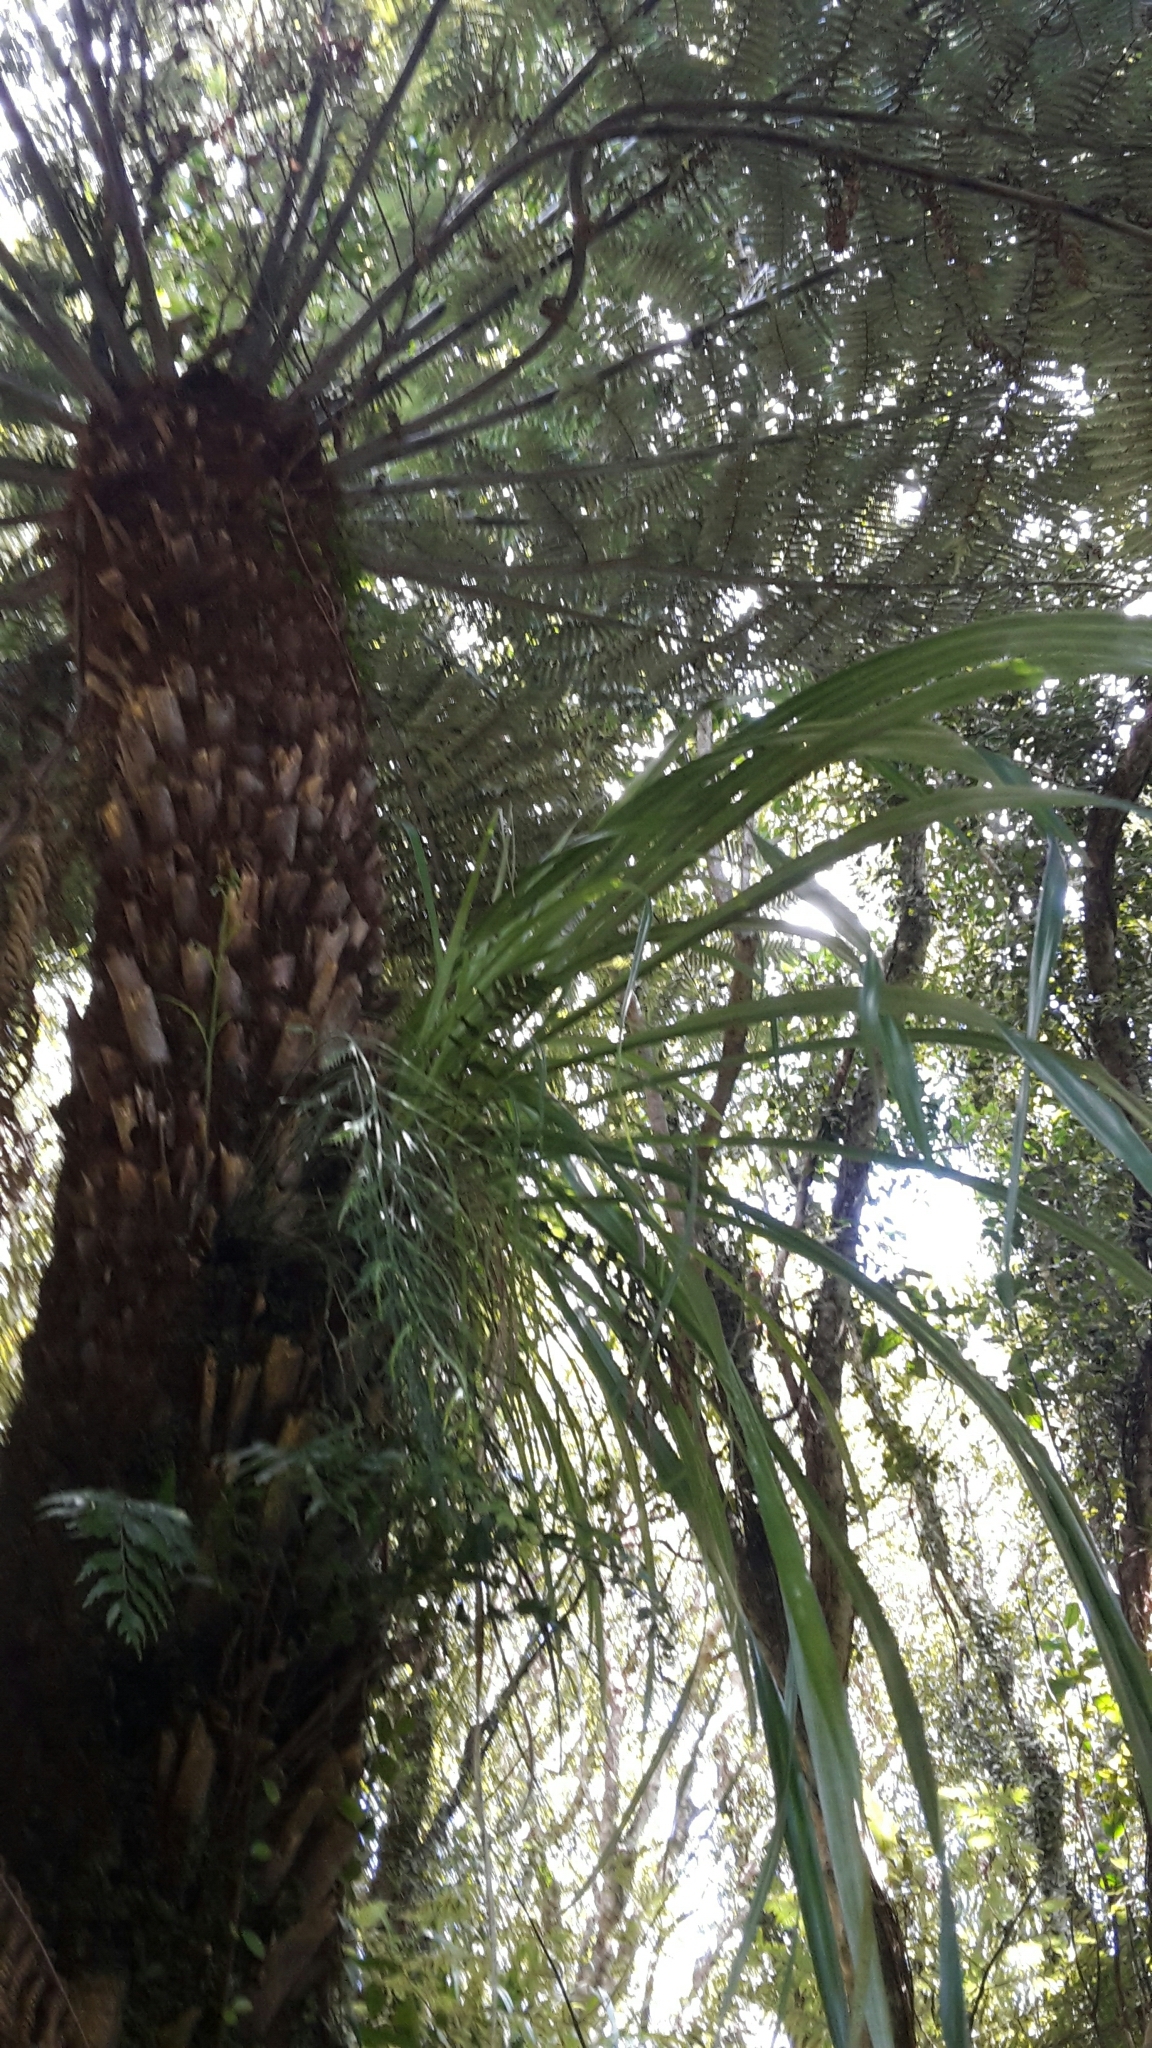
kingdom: Plantae
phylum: Tracheophyta
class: Liliopsida
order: Asparagales
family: Asteliaceae
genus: Astelia
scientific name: Astelia solandri
